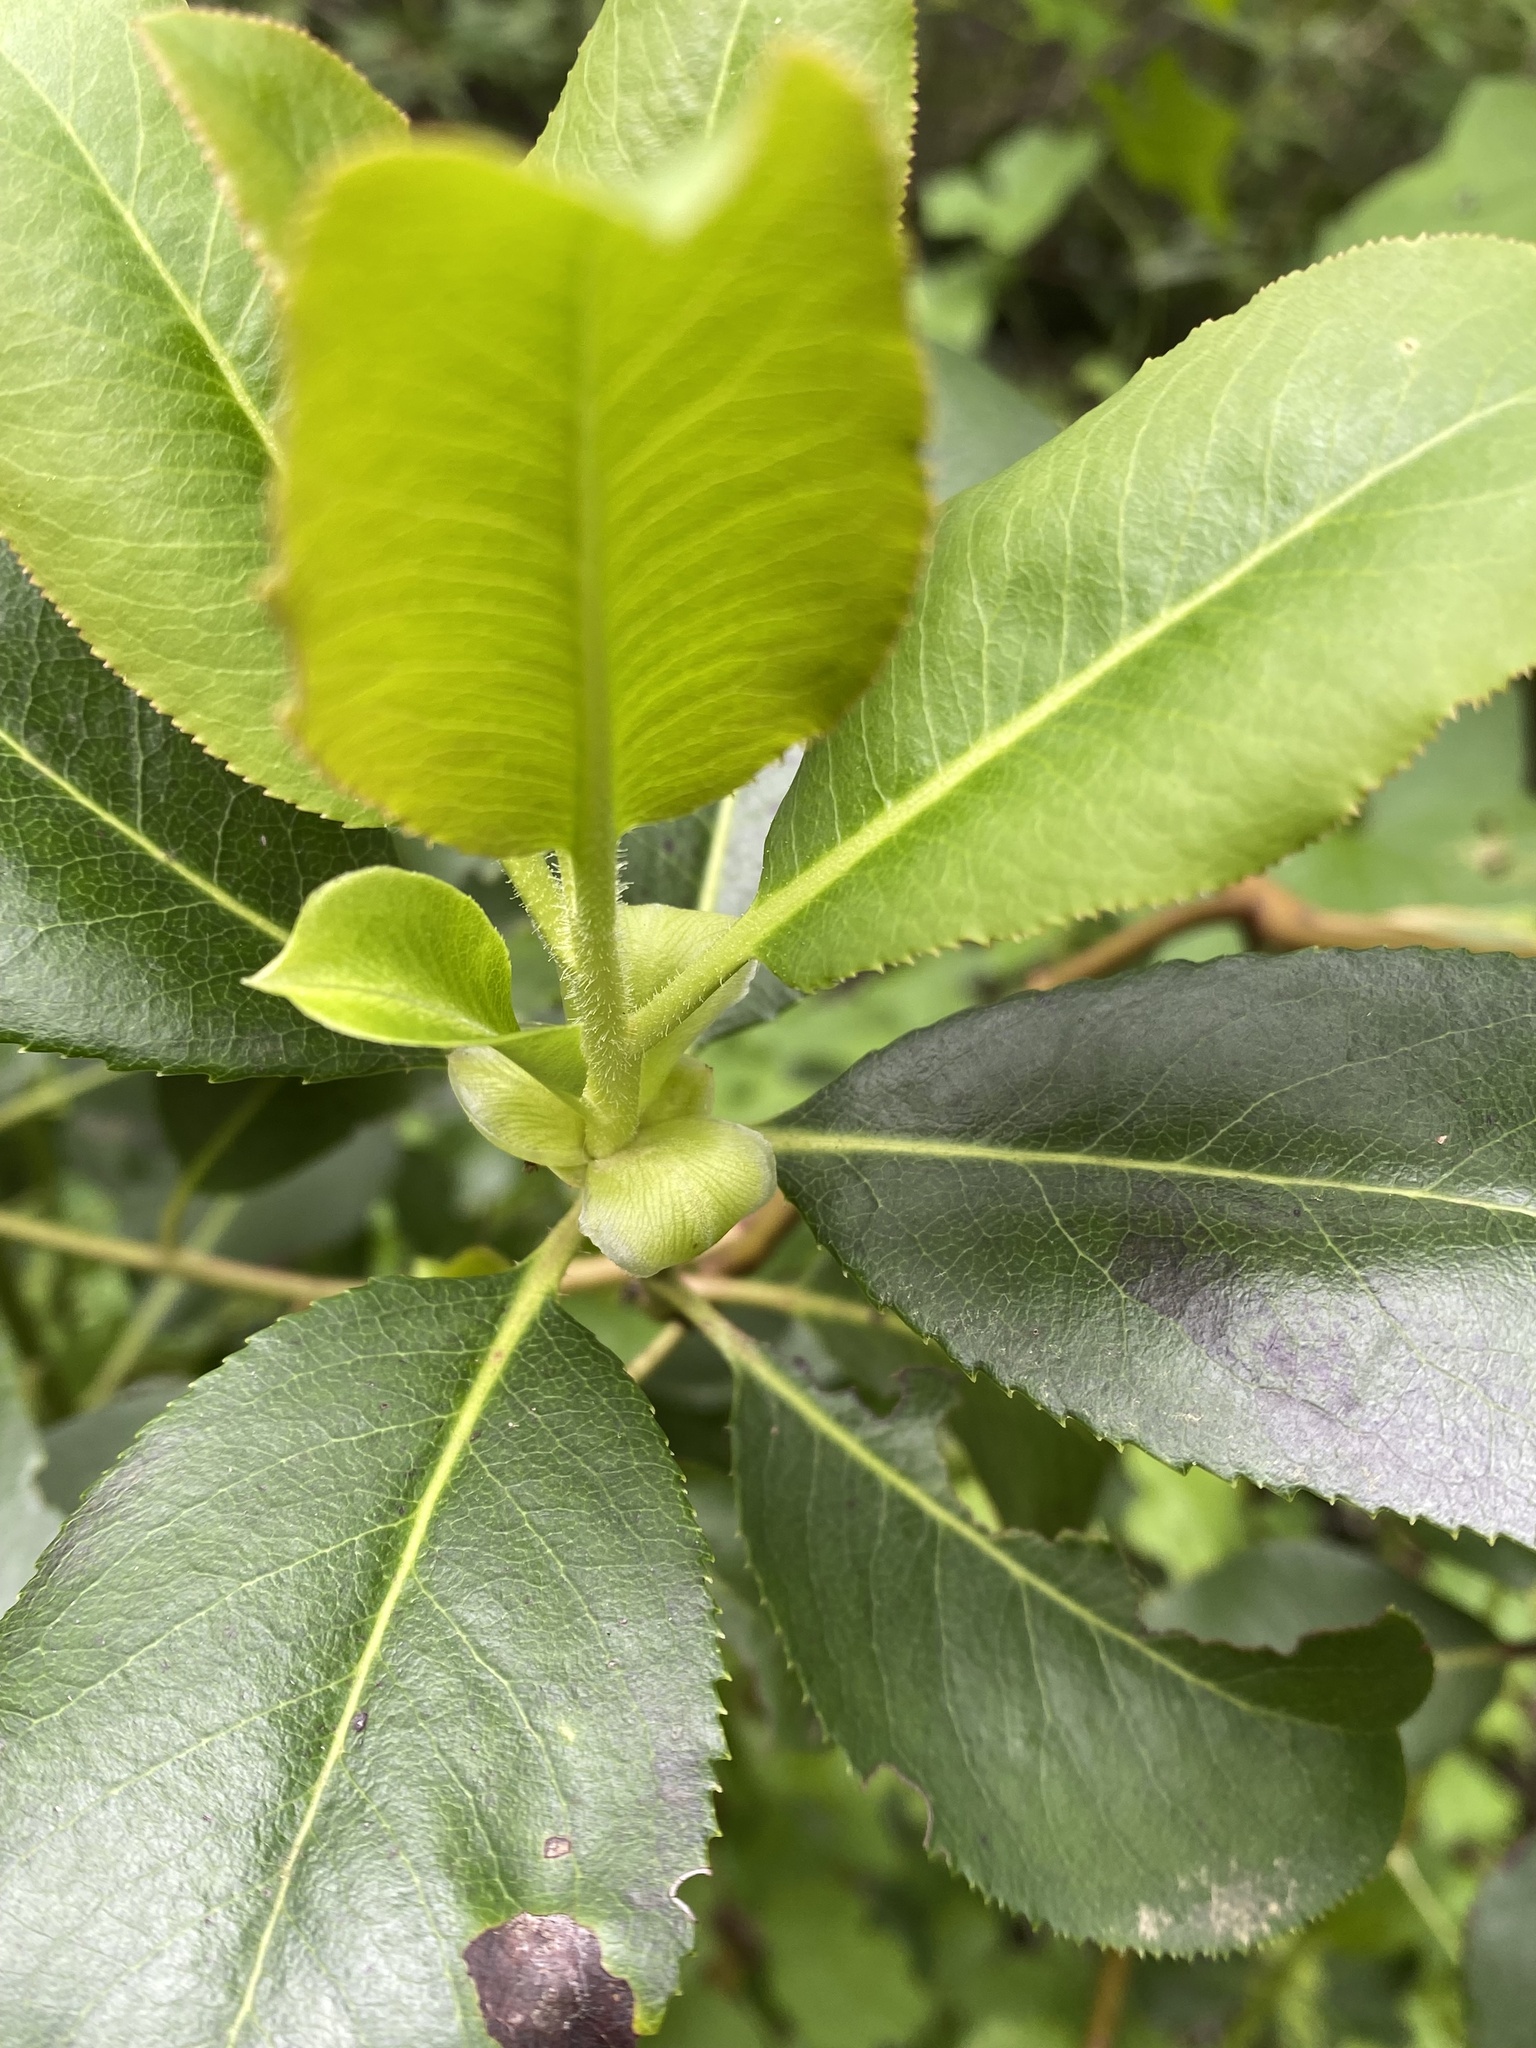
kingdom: Plantae
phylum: Tracheophyta
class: Magnoliopsida
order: Ericales
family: Ericaceae
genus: Arbutus
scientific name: Arbutus menziesii
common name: Pacific madrone
